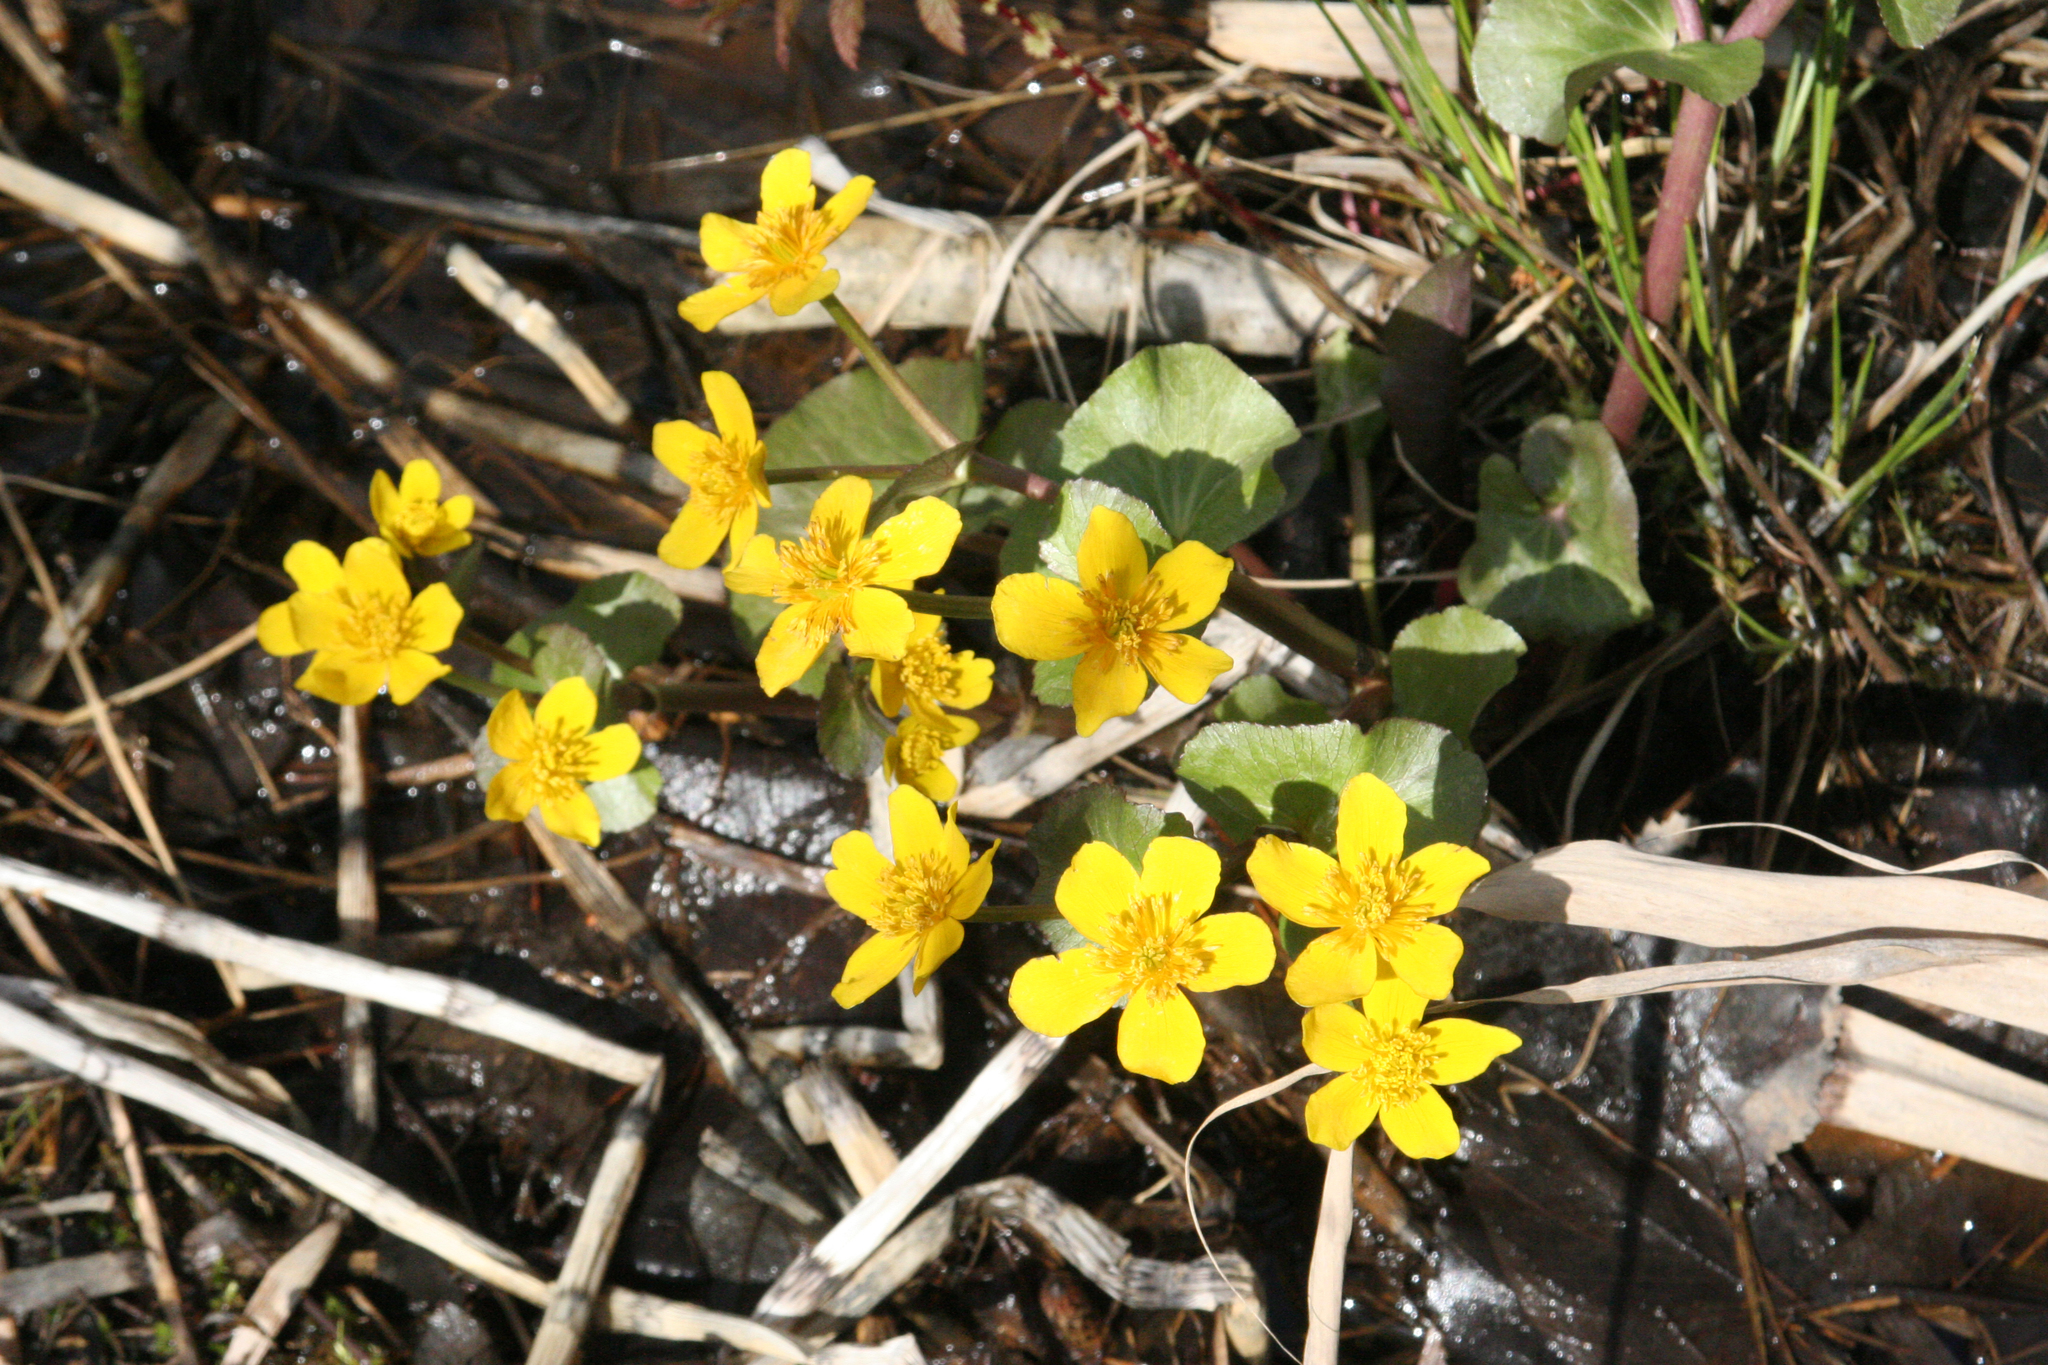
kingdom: Plantae
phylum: Tracheophyta
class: Magnoliopsida
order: Ranunculales
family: Ranunculaceae
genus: Caltha
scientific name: Caltha palustris
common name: Marsh marigold
